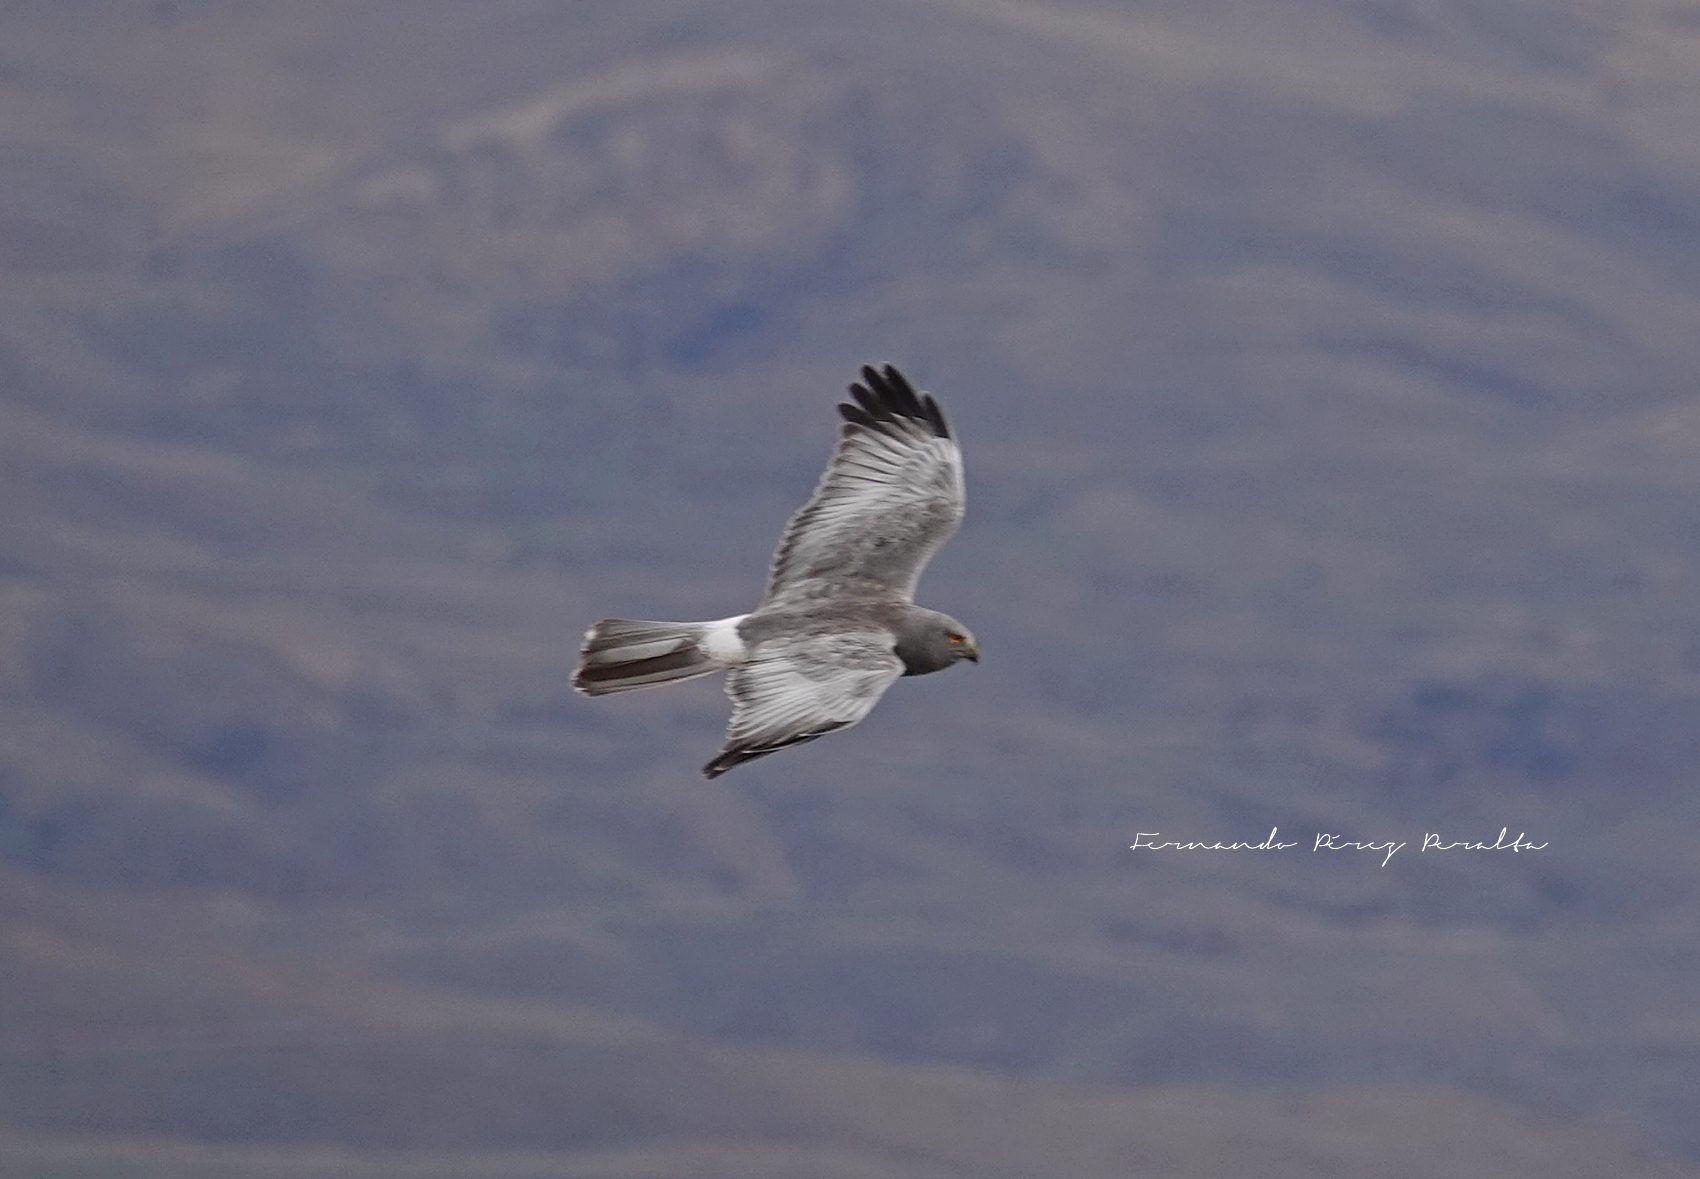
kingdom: Animalia
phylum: Chordata
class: Aves
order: Accipitriformes
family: Accipitridae
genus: Circus
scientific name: Circus cinereus
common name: Cinereous harrier
